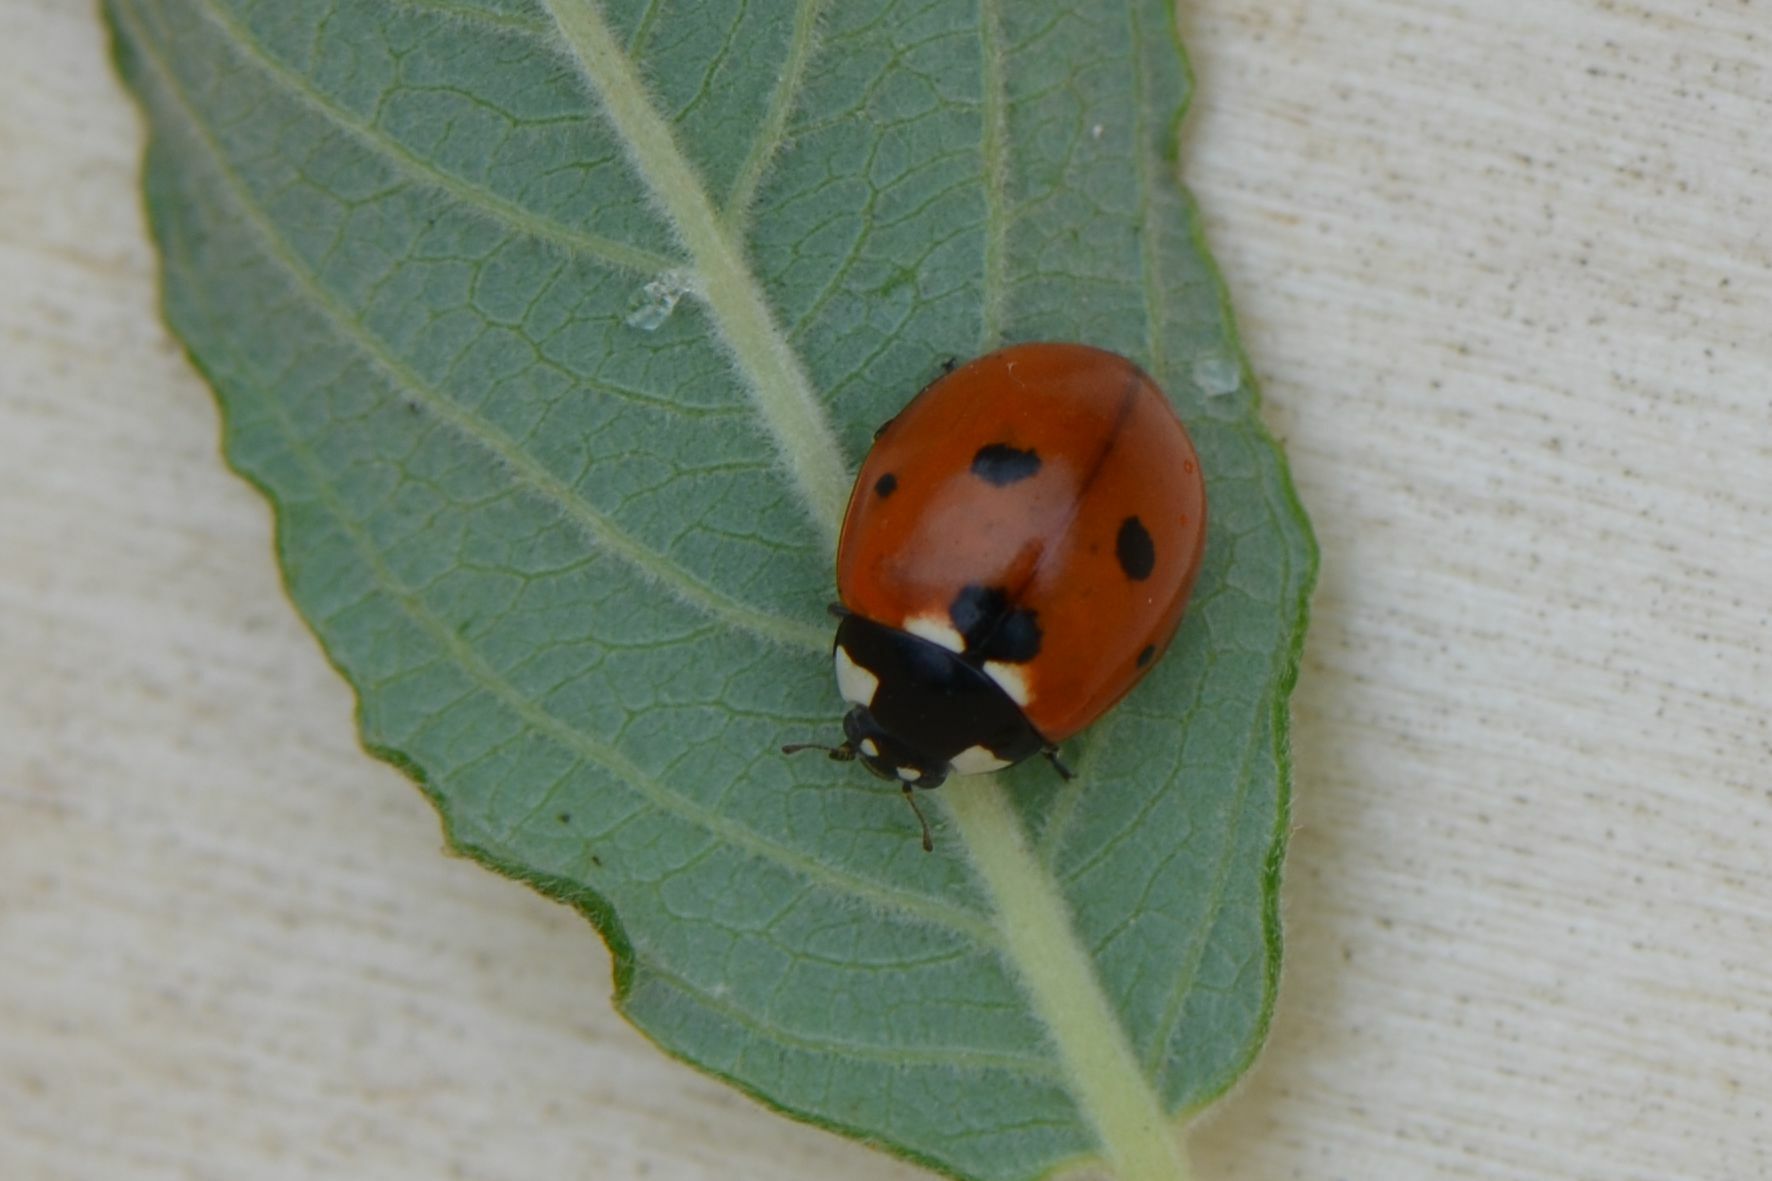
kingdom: Animalia
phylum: Arthropoda
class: Insecta
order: Coleoptera
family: Coccinellidae
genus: Coccinella
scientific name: Coccinella septempunctata
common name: Sevenspotted lady beetle
